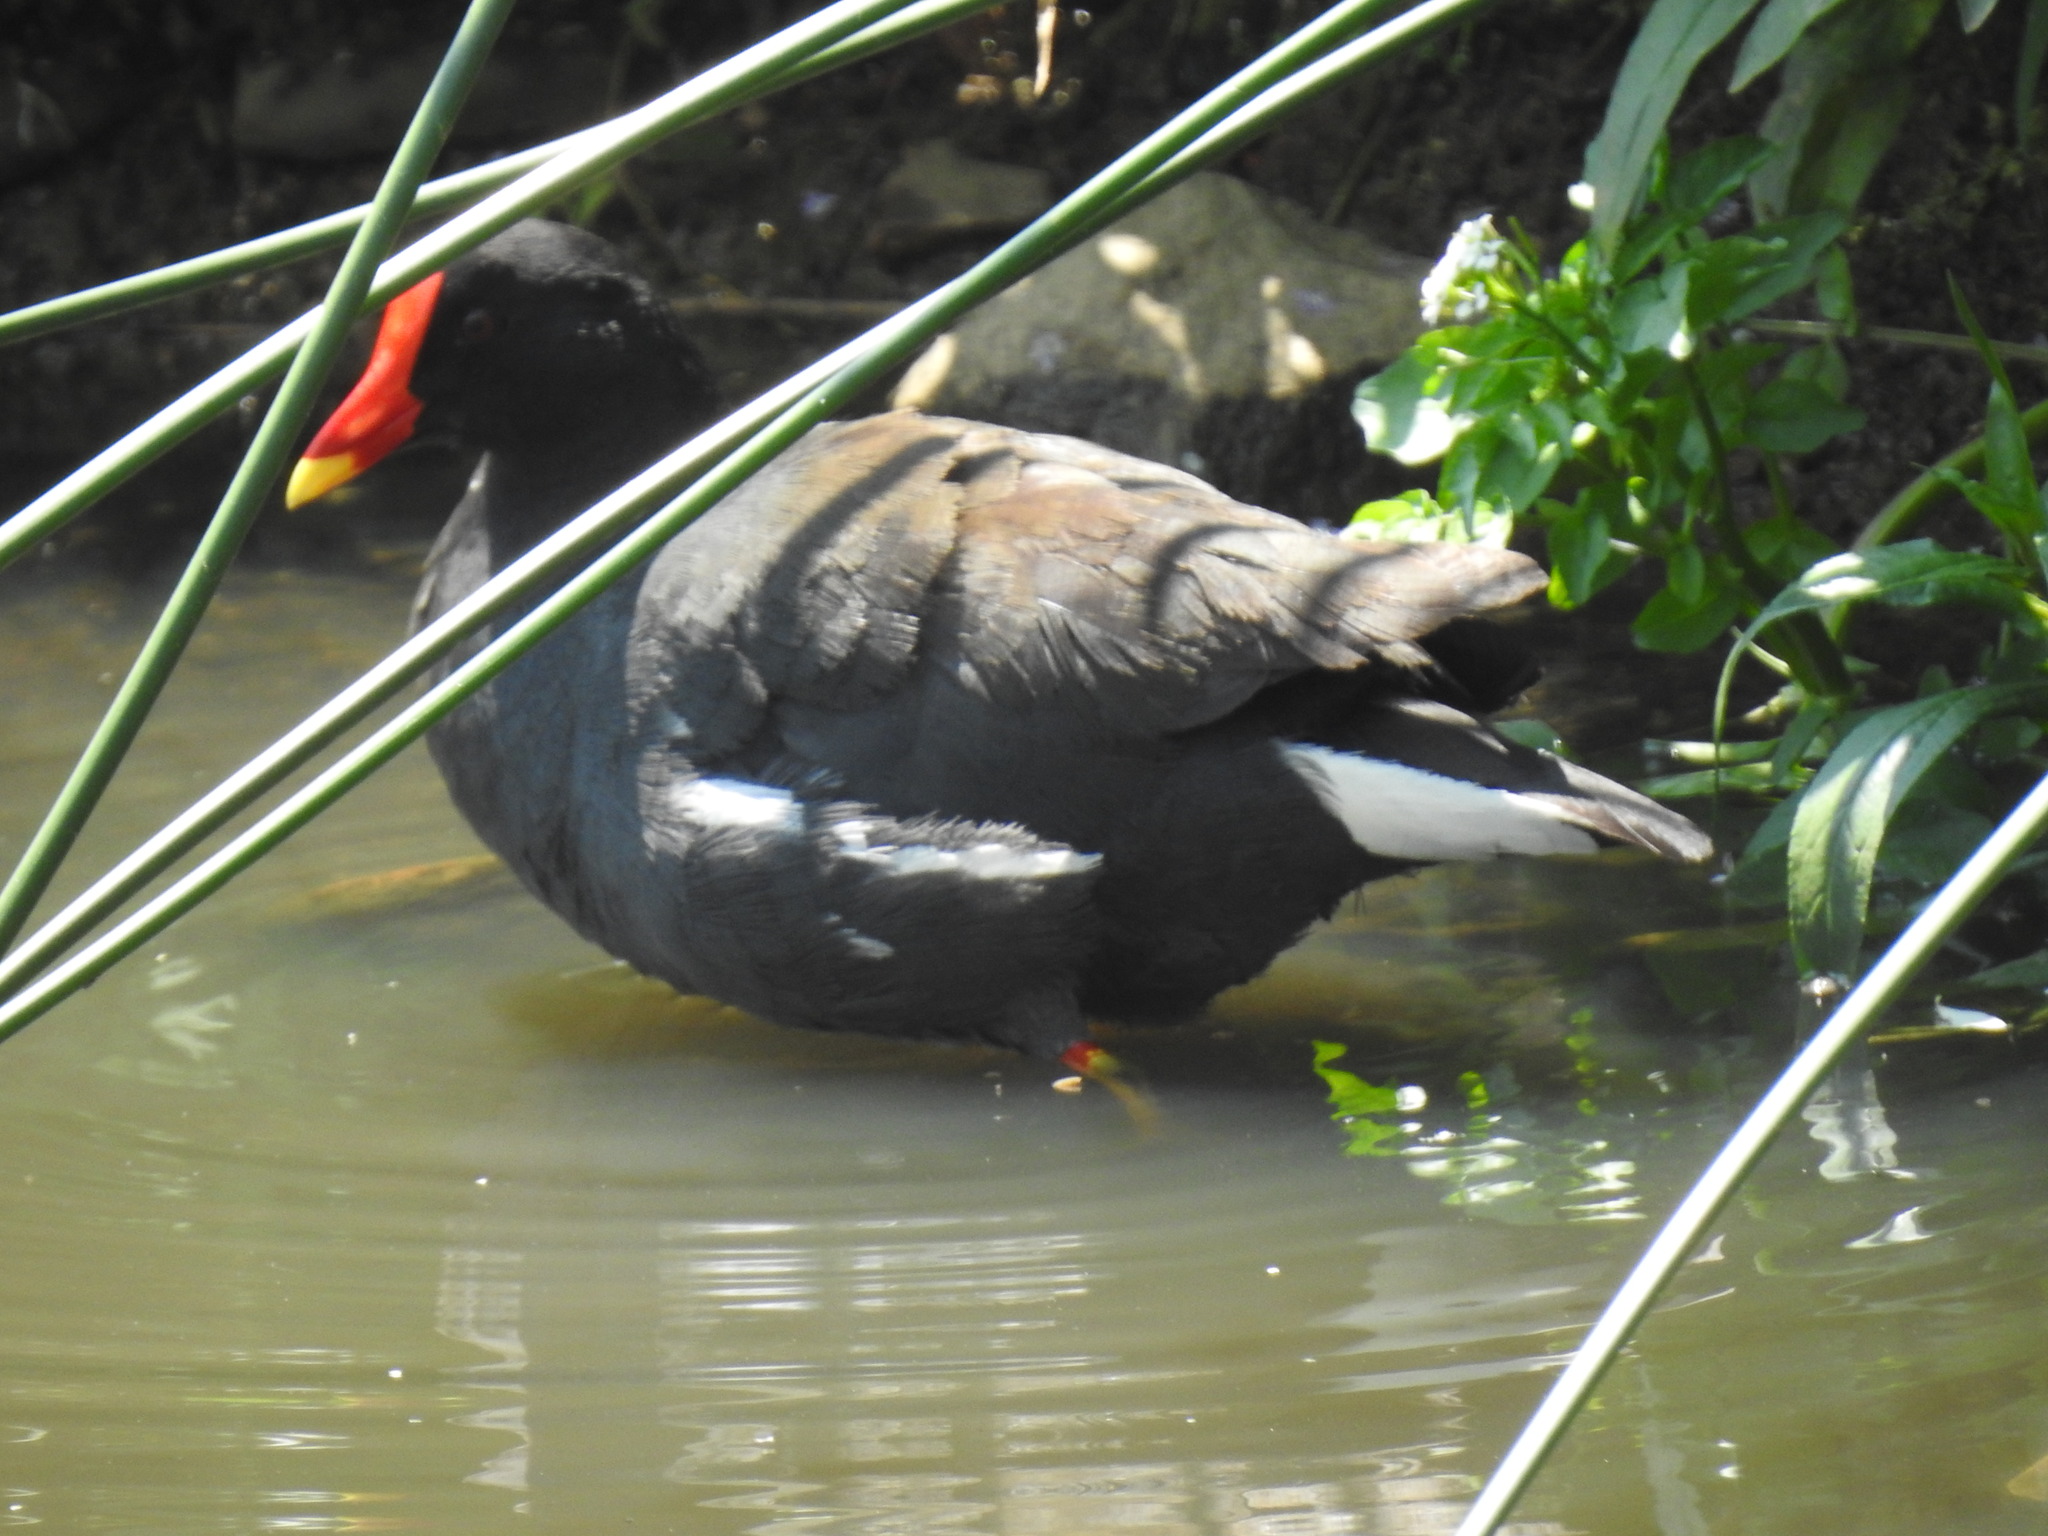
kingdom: Animalia
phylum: Chordata
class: Aves
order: Gruiformes
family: Rallidae
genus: Gallinula
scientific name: Gallinula chloropus
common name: Common moorhen
